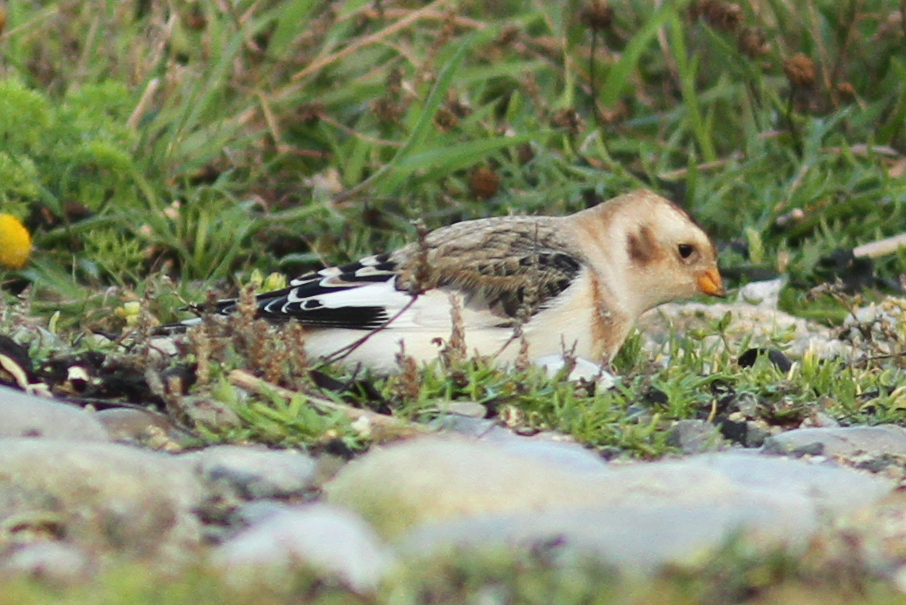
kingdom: Animalia
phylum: Chordata
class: Aves
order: Passeriformes
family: Calcariidae
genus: Plectrophenax
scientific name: Plectrophenax nivalis
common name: Snow bunting
